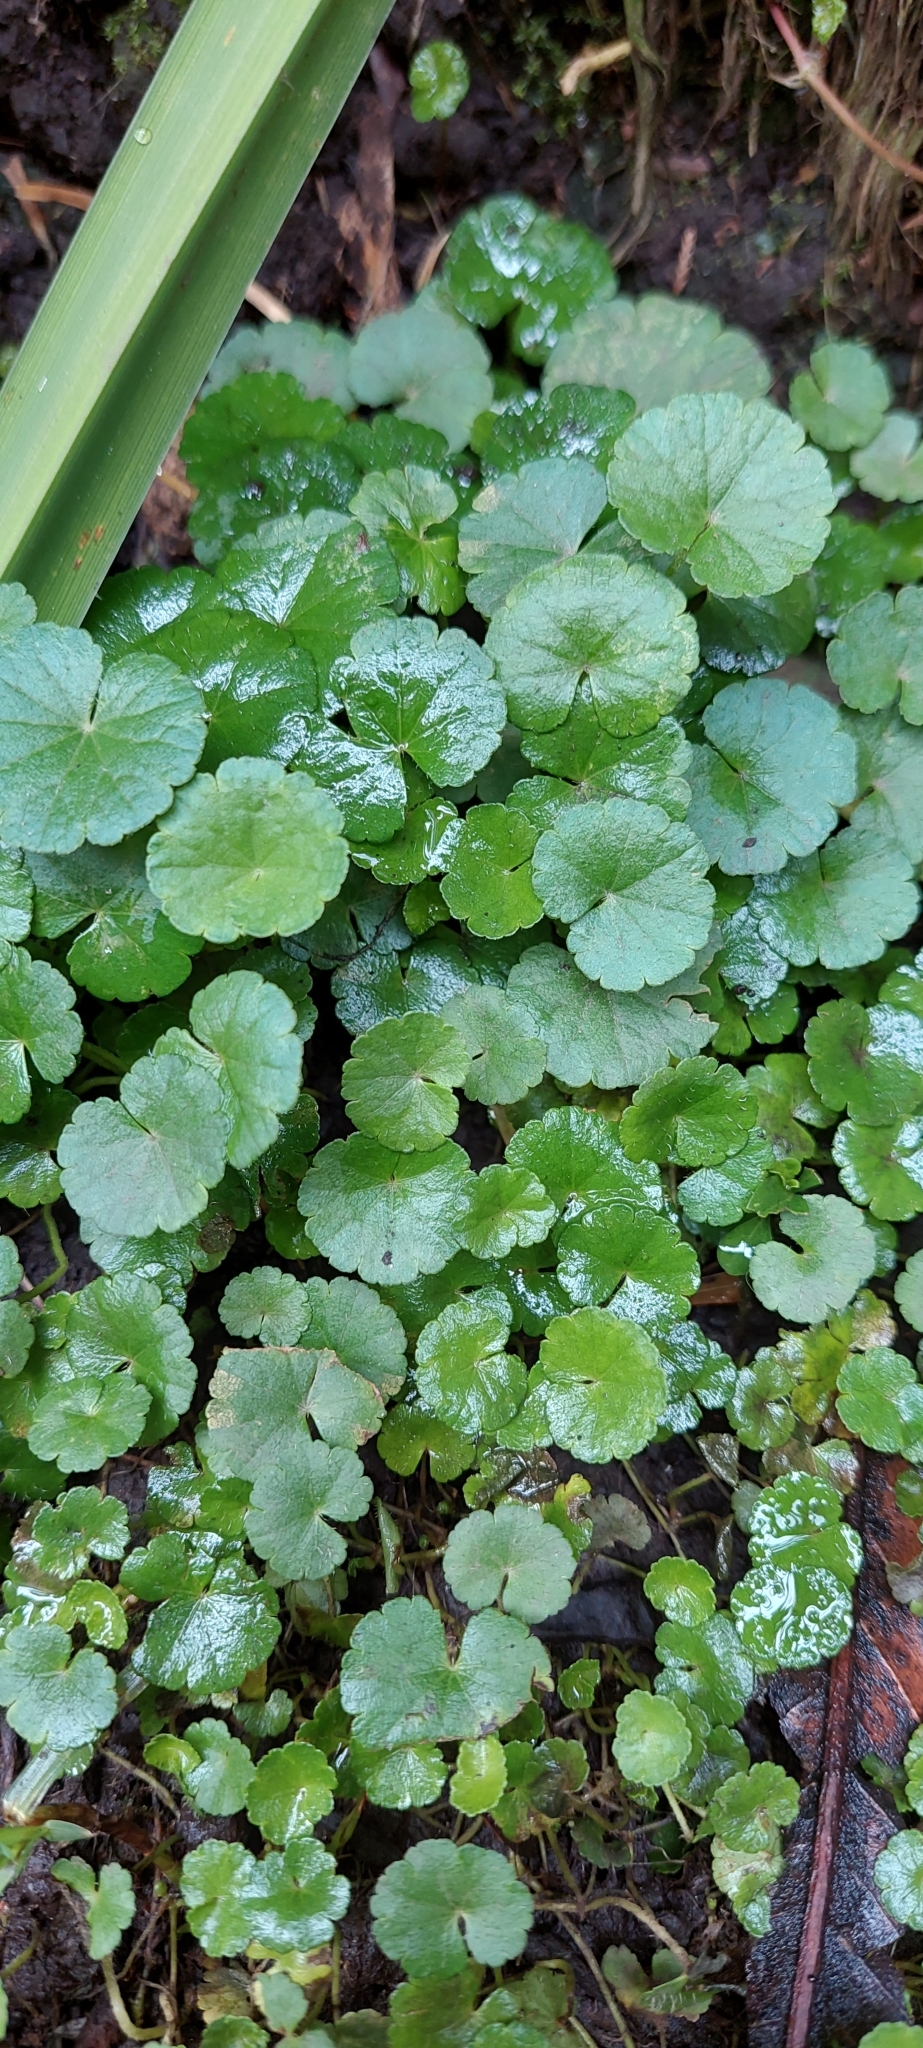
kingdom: Plantae
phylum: Tracheophyta
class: Magnoliopsida
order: Apiales
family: Araliaceae
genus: Hydrocotyle
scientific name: Hydrocotyle bonplandii
